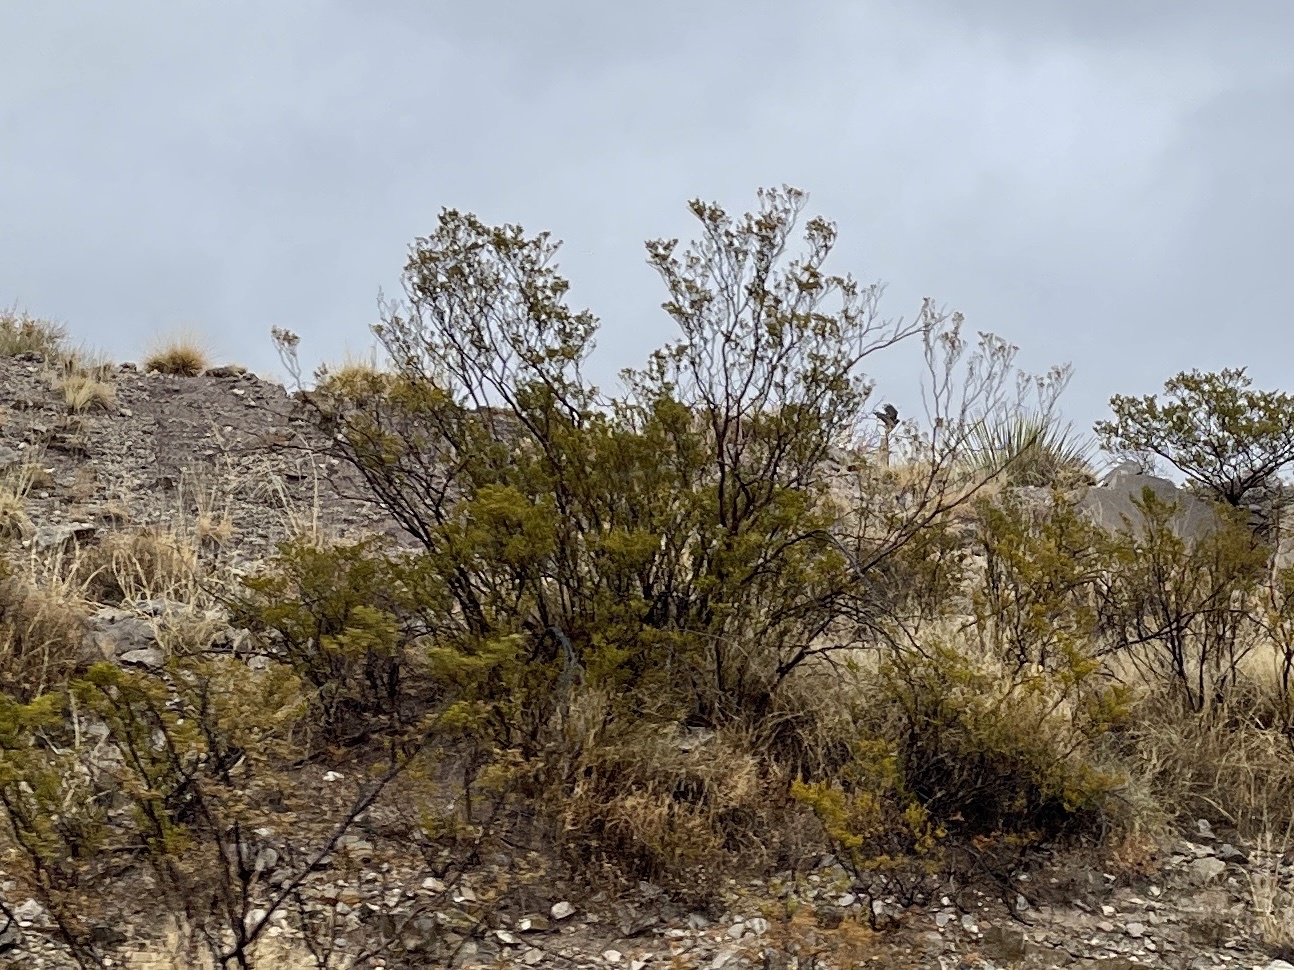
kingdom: Plantae
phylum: Tracheophyta
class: Magnoliopsida
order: Zygophyllales
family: Zygophyllaceae
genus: Larrea
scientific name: Larrea tridentata
